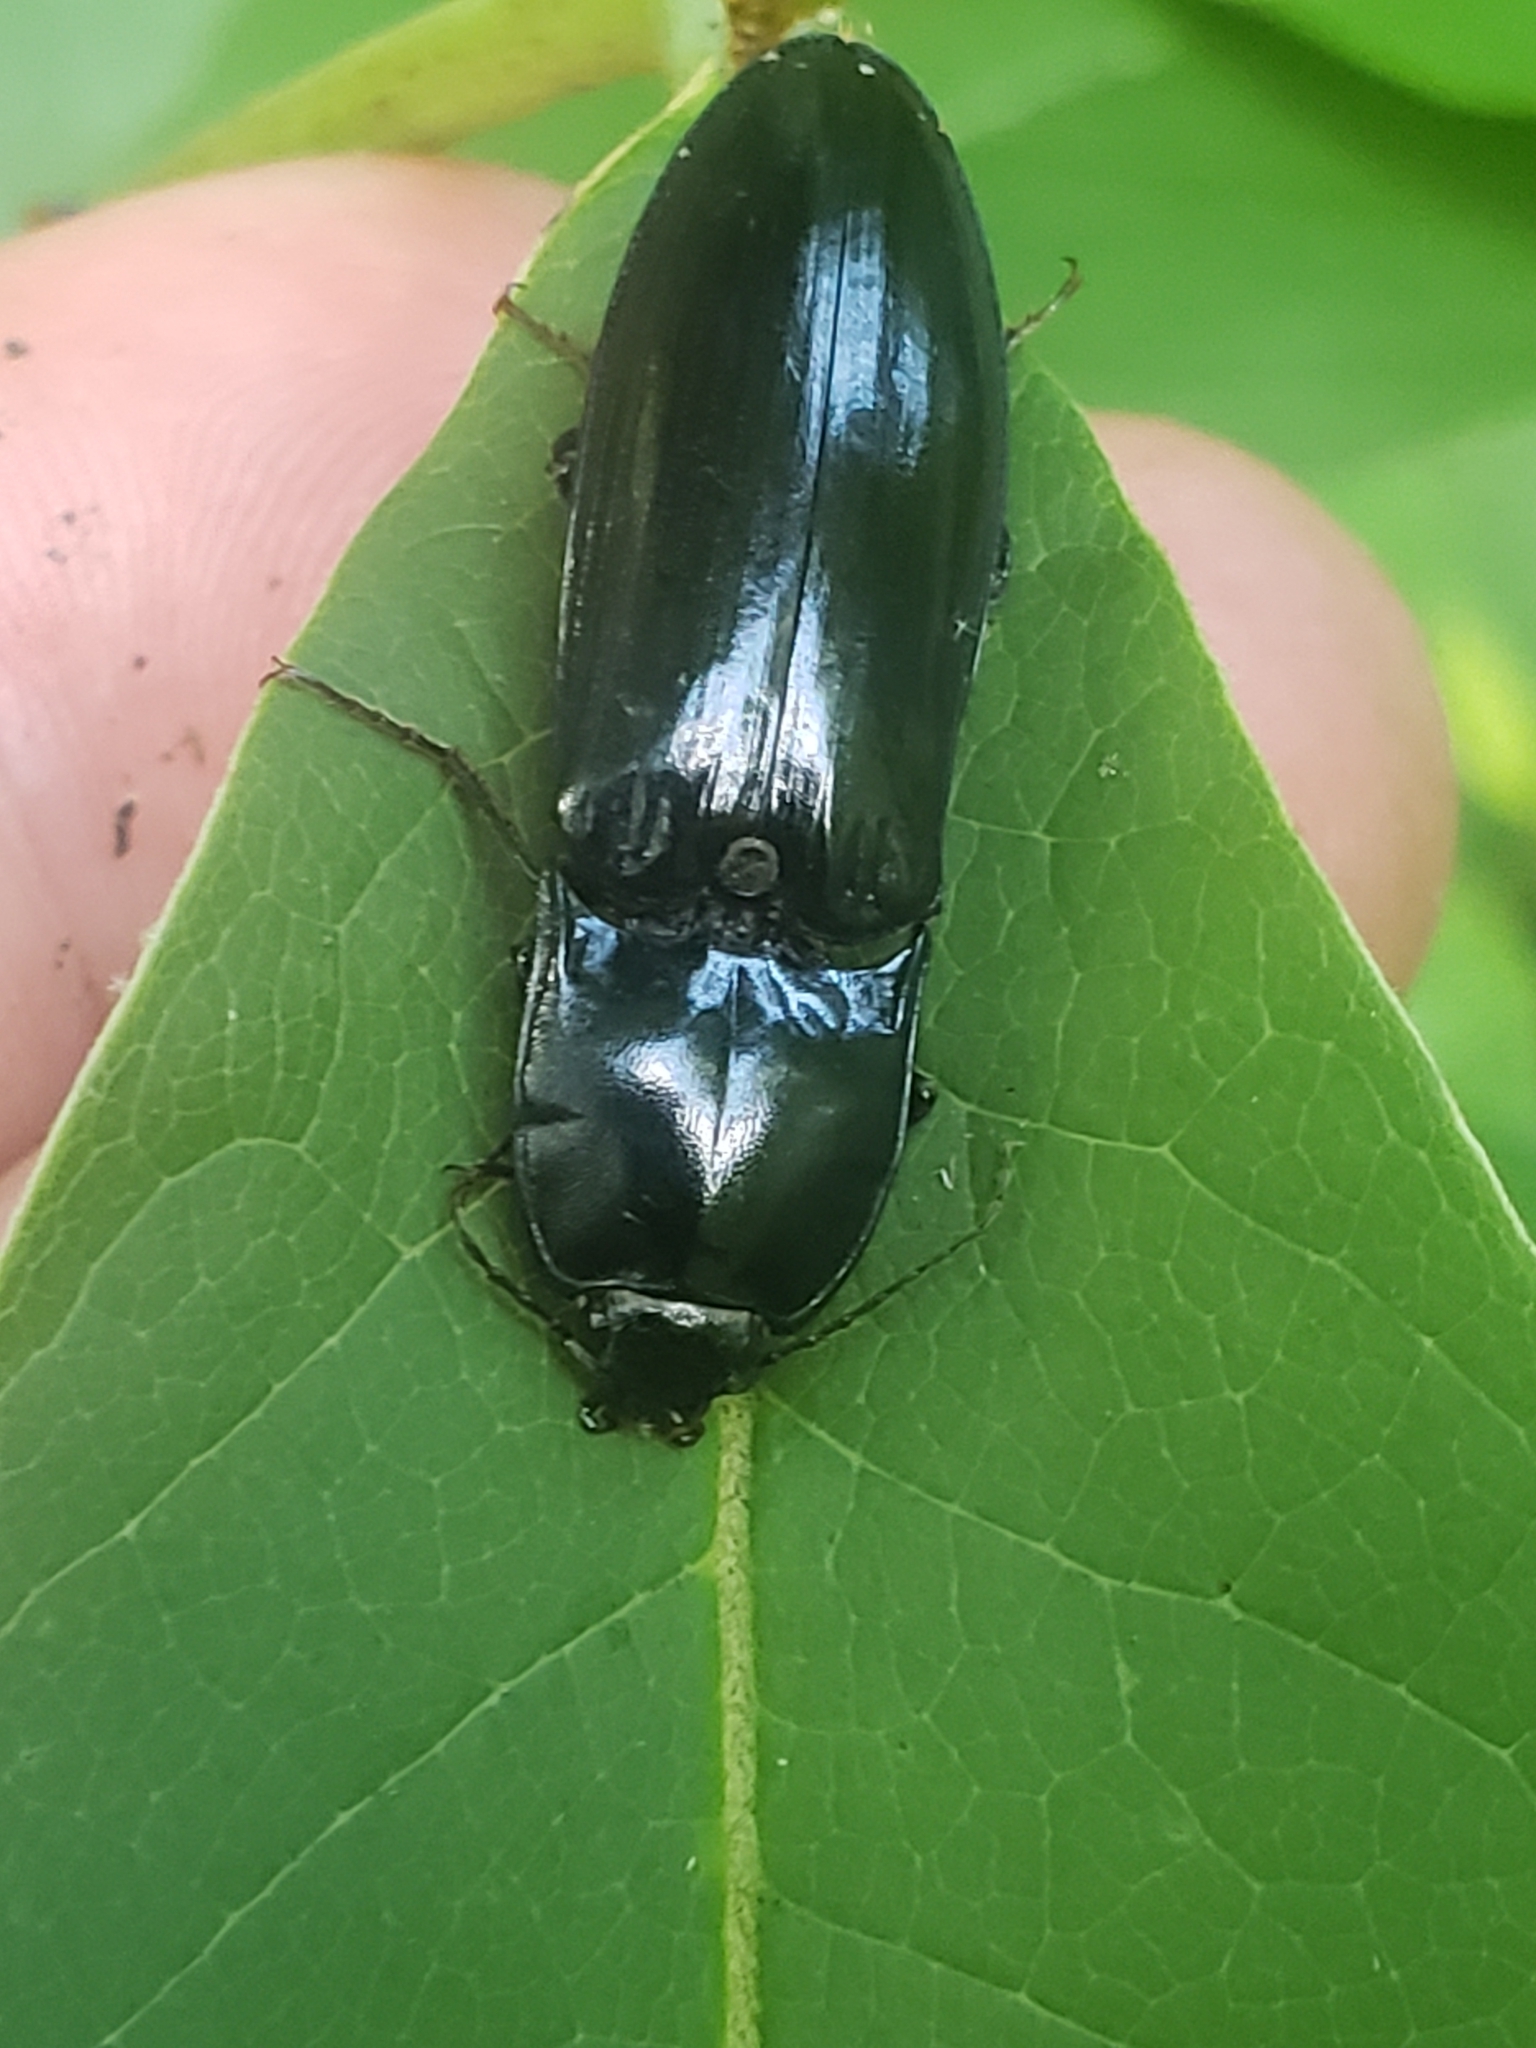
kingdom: Animalia
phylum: Arthropoda
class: Insecta
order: Coleoptera
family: Elateridae
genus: Melanactes
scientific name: Melanactes piceus
